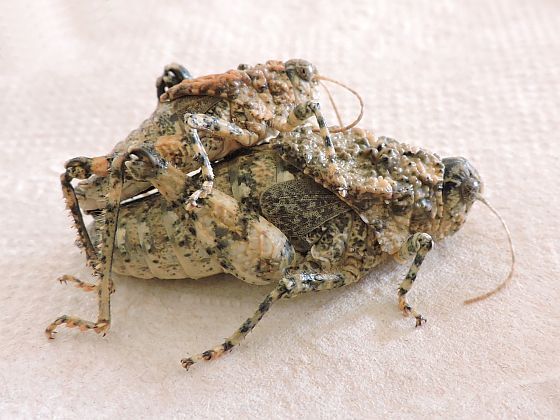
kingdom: Animalia
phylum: Arthropoda
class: Insecta
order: Orthoptera
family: Romaleidae
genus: Phrynotettix
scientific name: Phrynotettix tshivavensis
